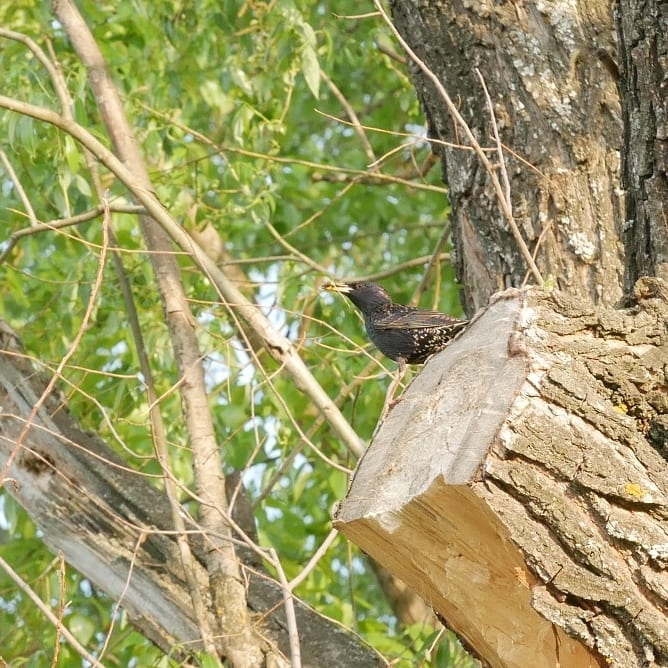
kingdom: Animalia
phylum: Chordata
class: Aves
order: Passeriformes
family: Sturnidae
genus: Sturnus
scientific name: Sturnus vulgaris
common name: Common starling
